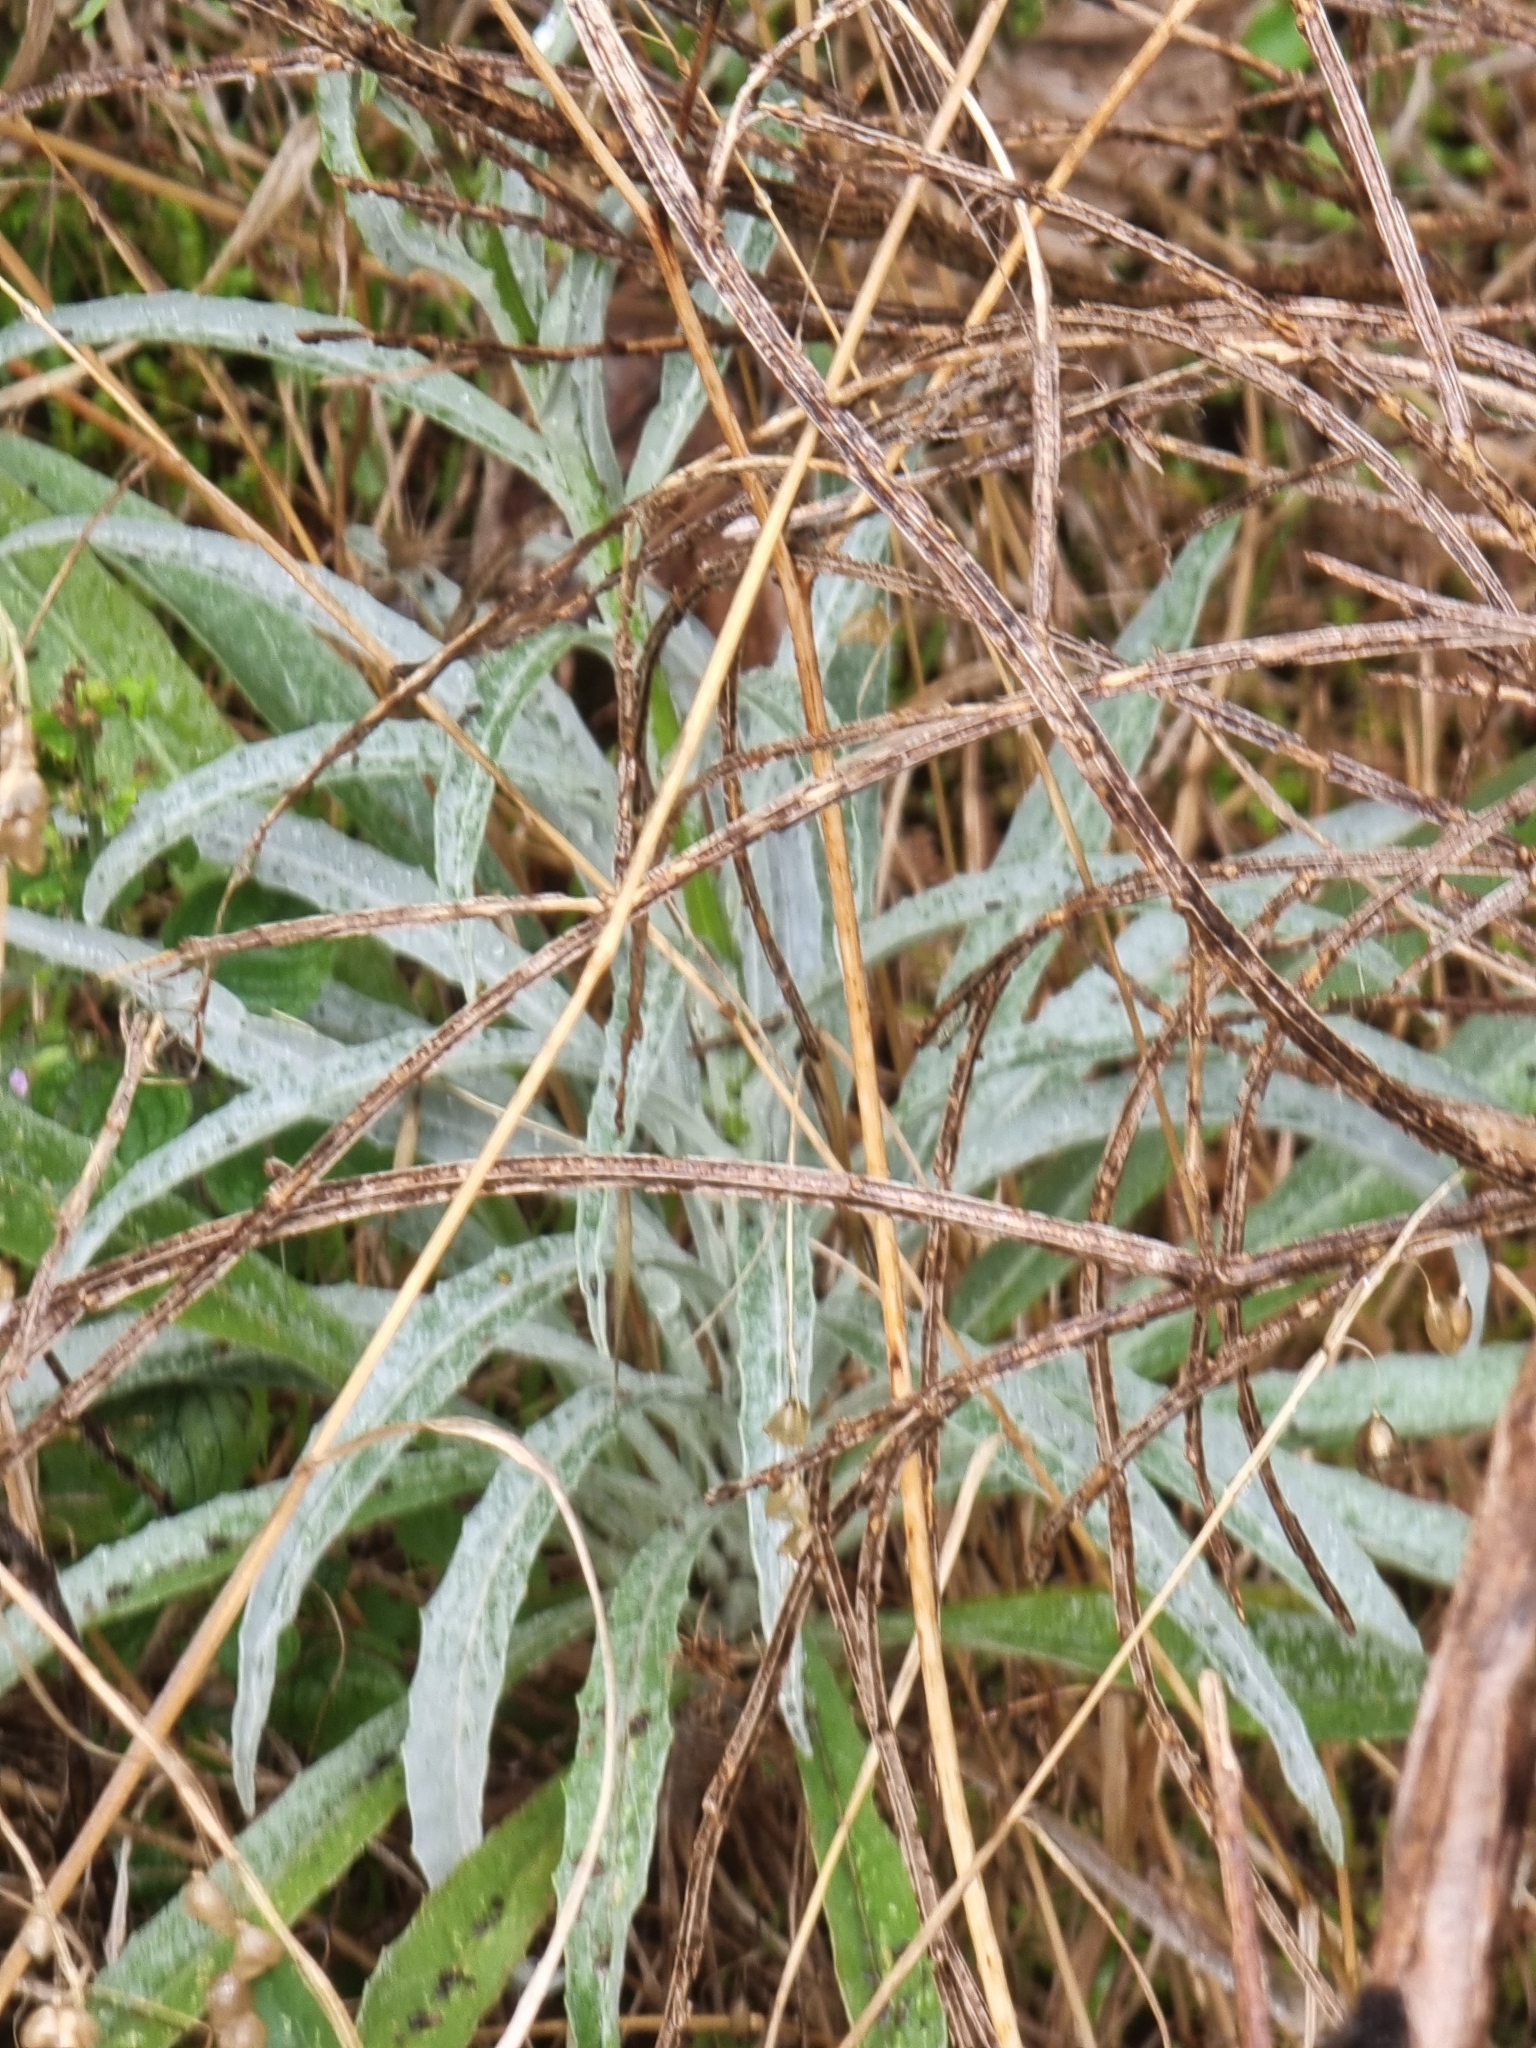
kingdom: Plantae
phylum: Tracheophyta
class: Magnoliopsida
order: Asterales
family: Asteraceae
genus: Andryala
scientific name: Andryala glandulosa
